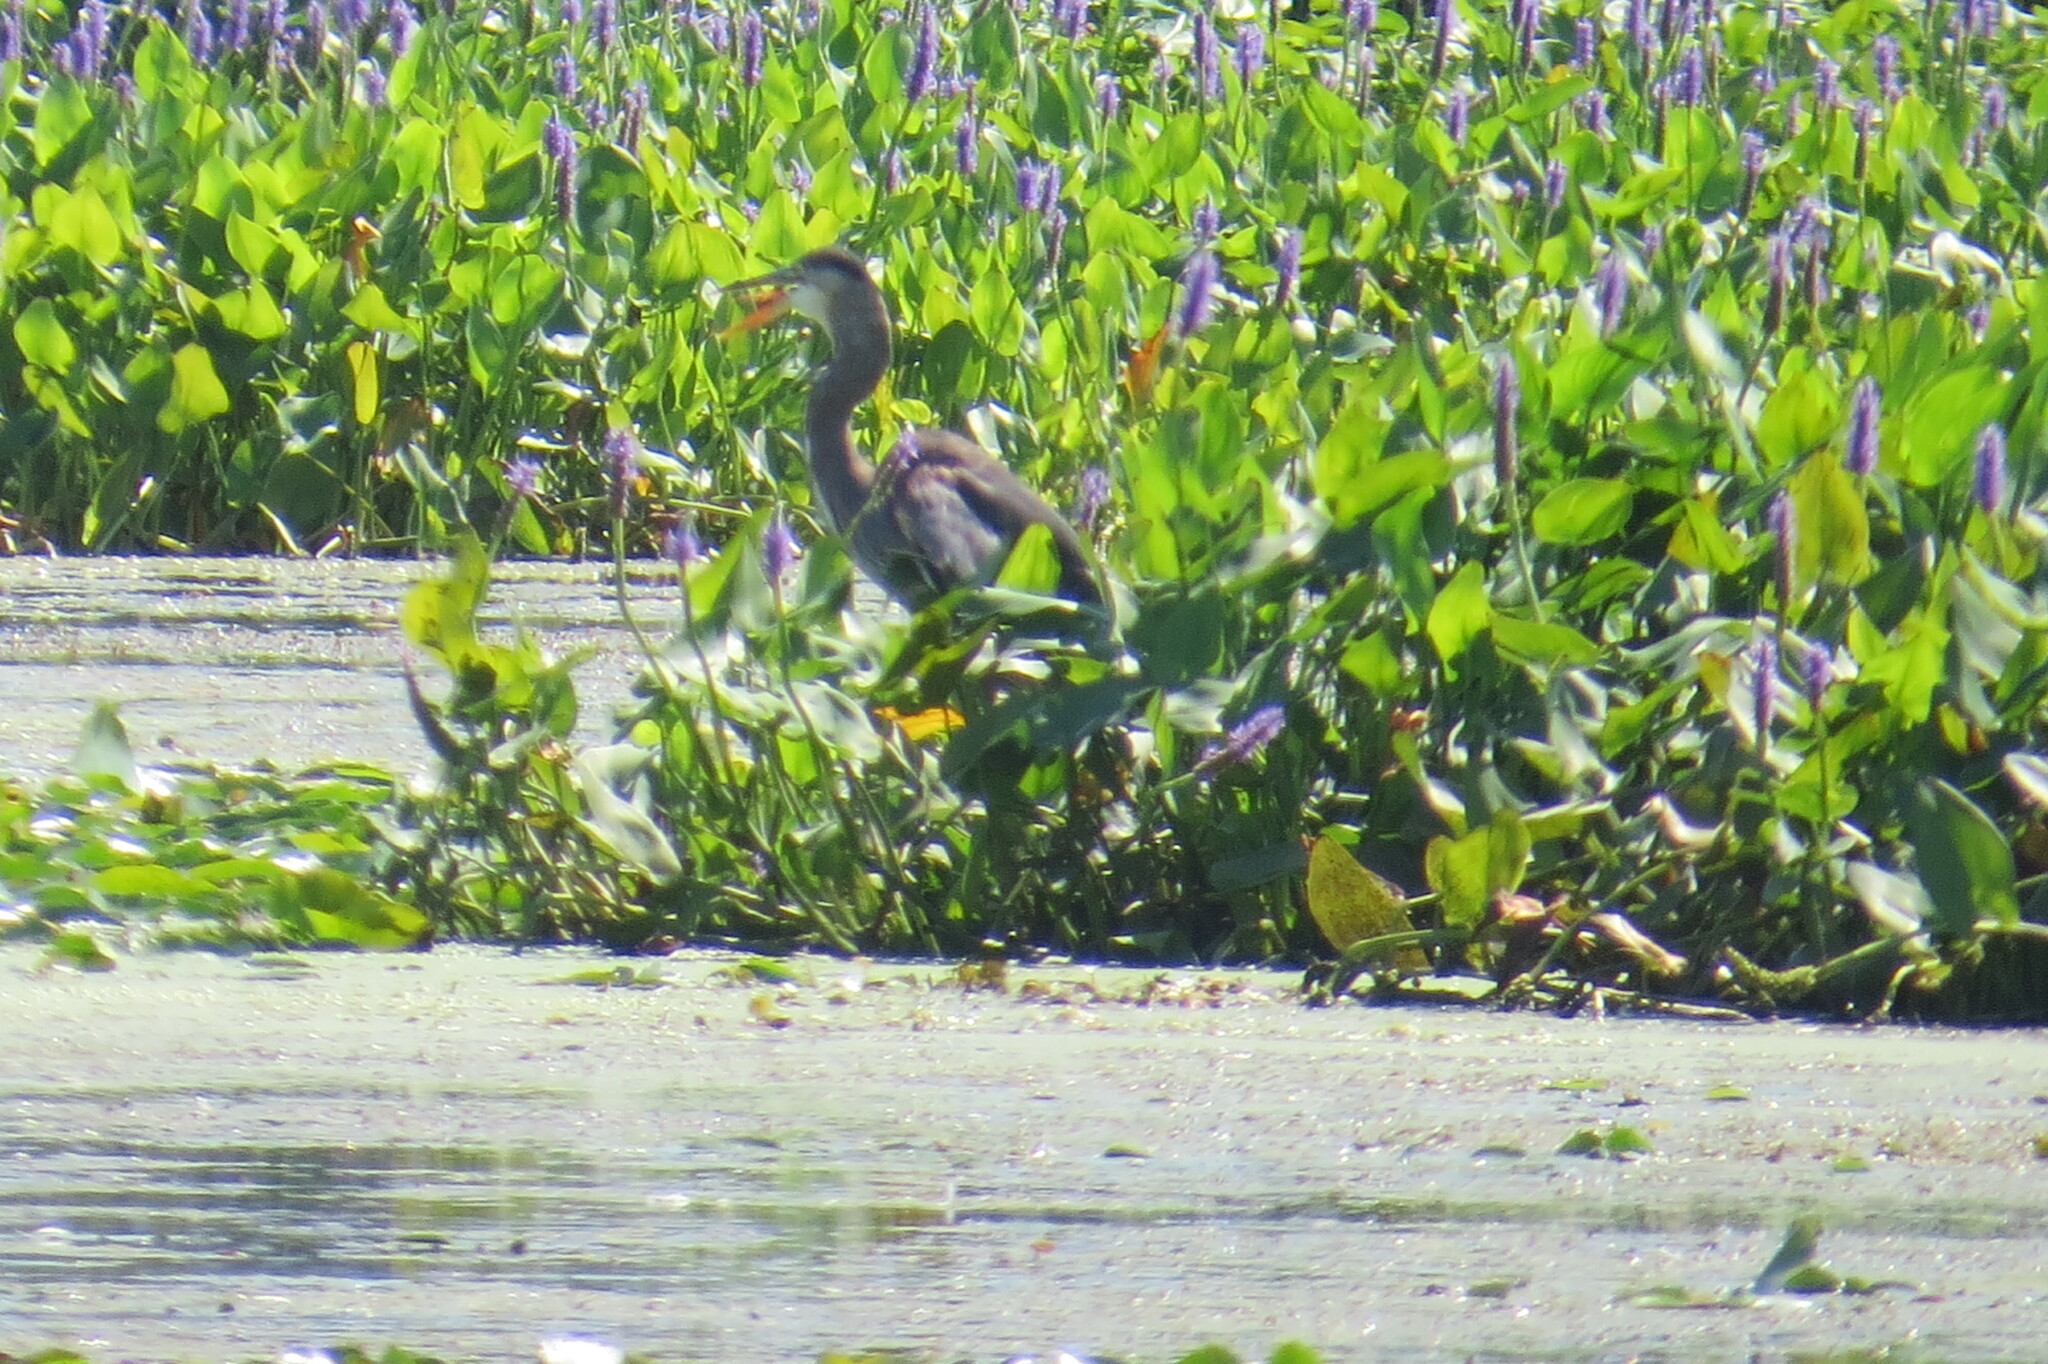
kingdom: Animalia
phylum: Chordata
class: Aves
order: Pelecaniformes
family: Ardeidae
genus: Ardea
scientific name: Ardea herodias
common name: Great blue heron
